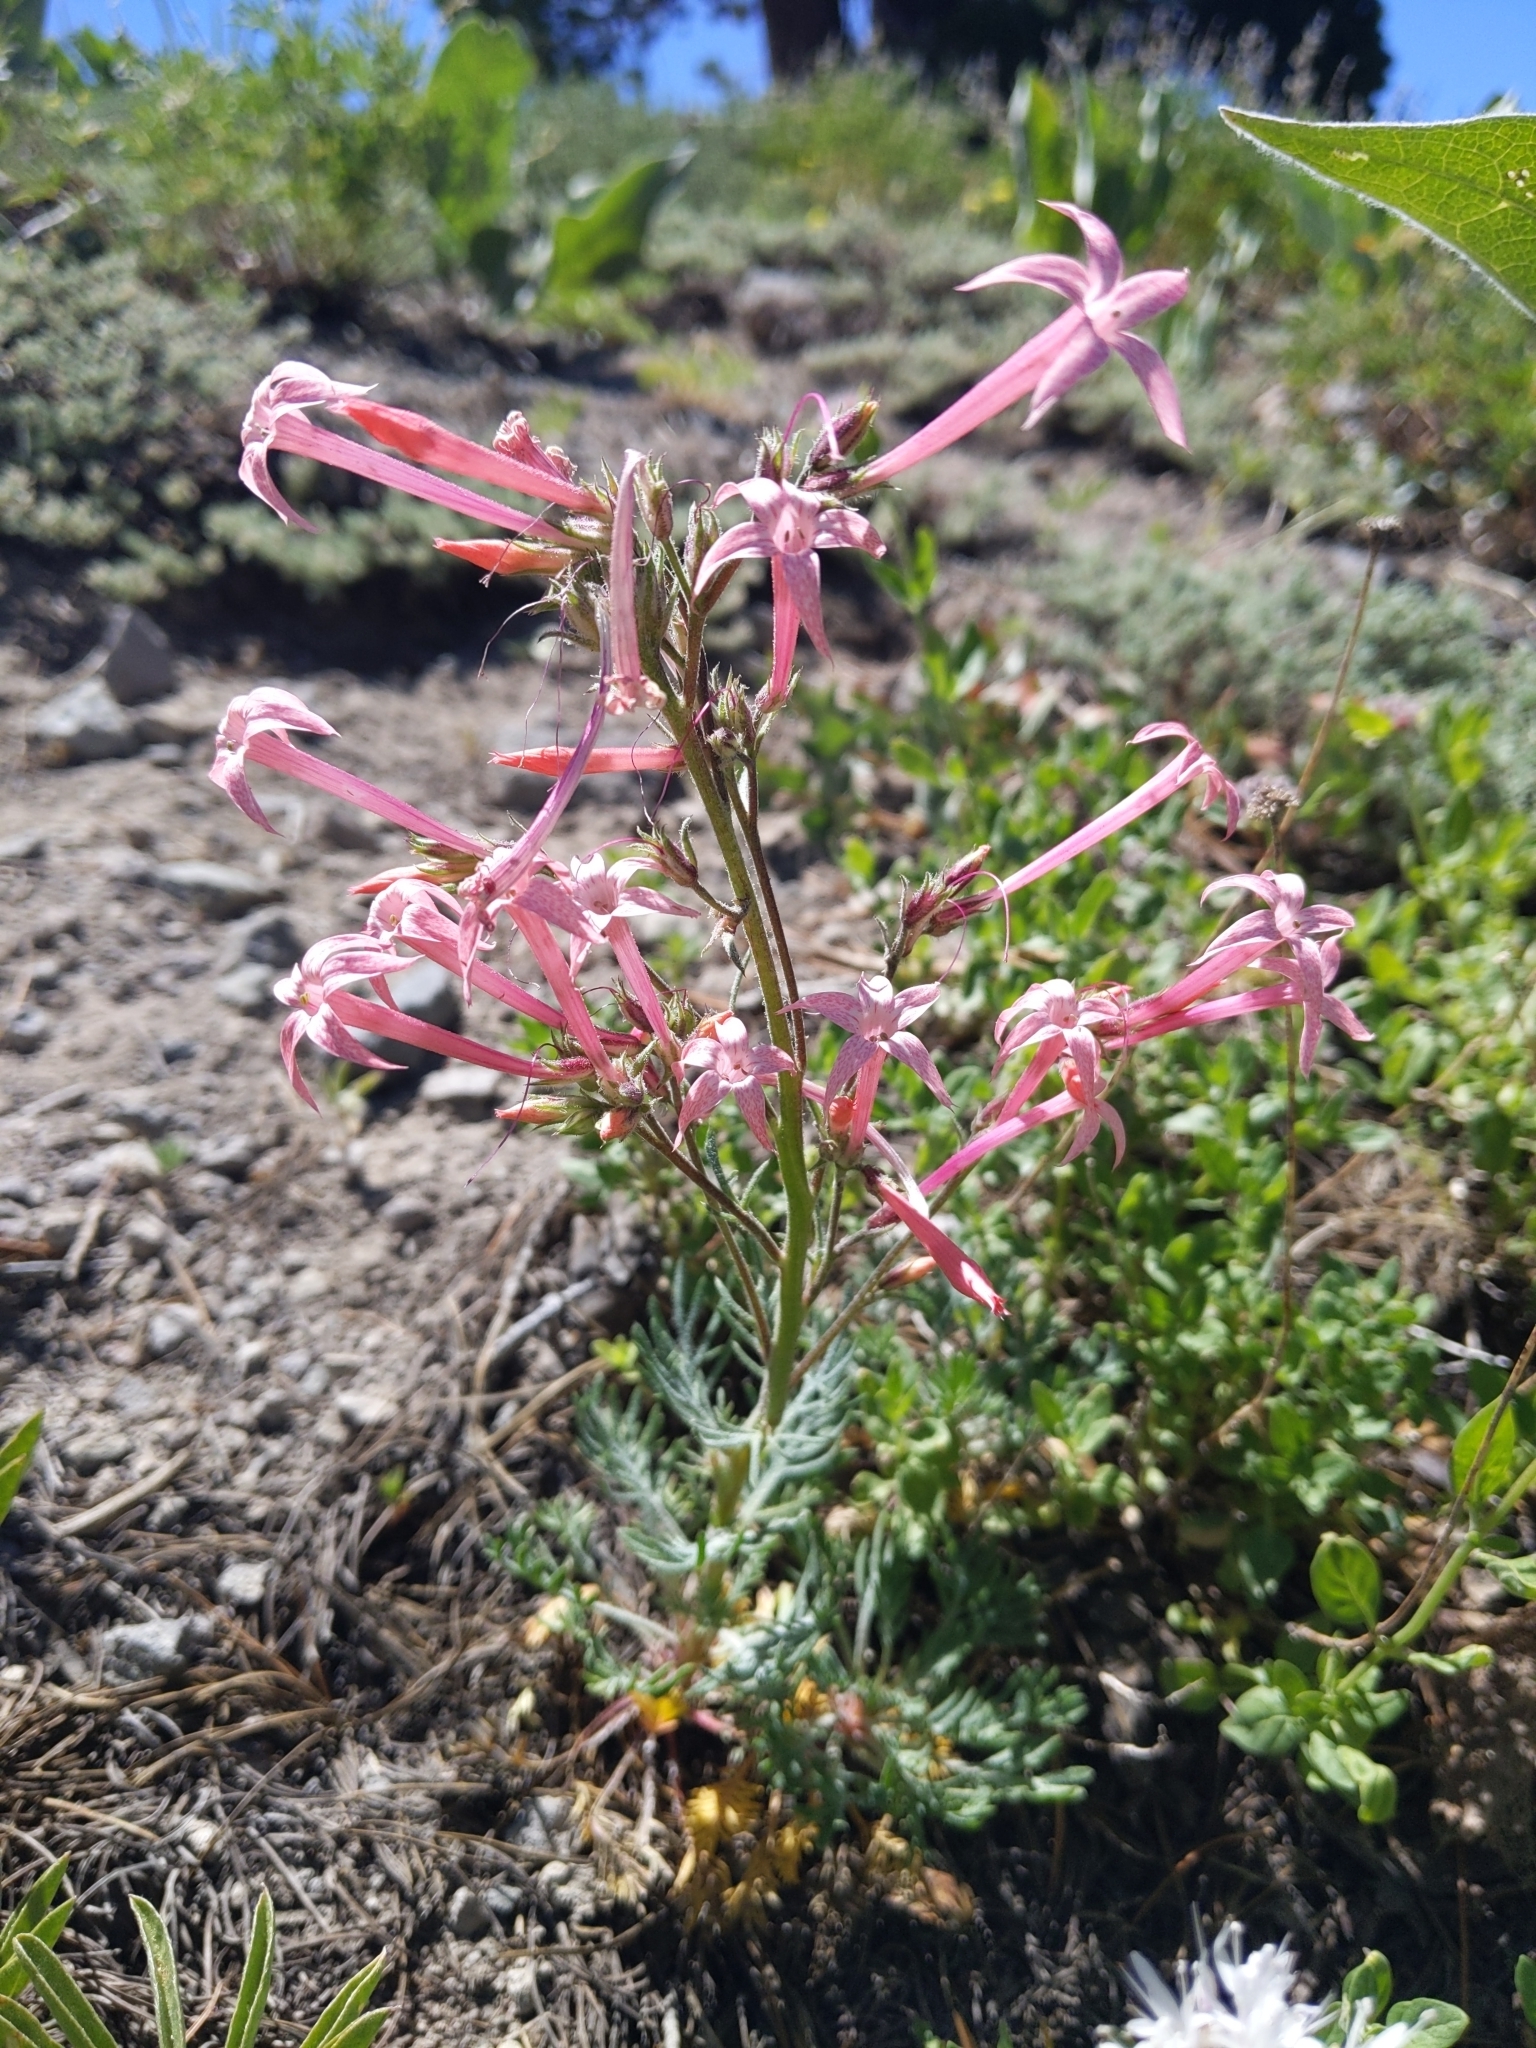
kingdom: Plantae
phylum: Tracheophyta
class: Magnoliopsida
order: Ericales
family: Polemoniaceae
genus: Ipomopsis
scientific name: Ipomopsis tenuituba
